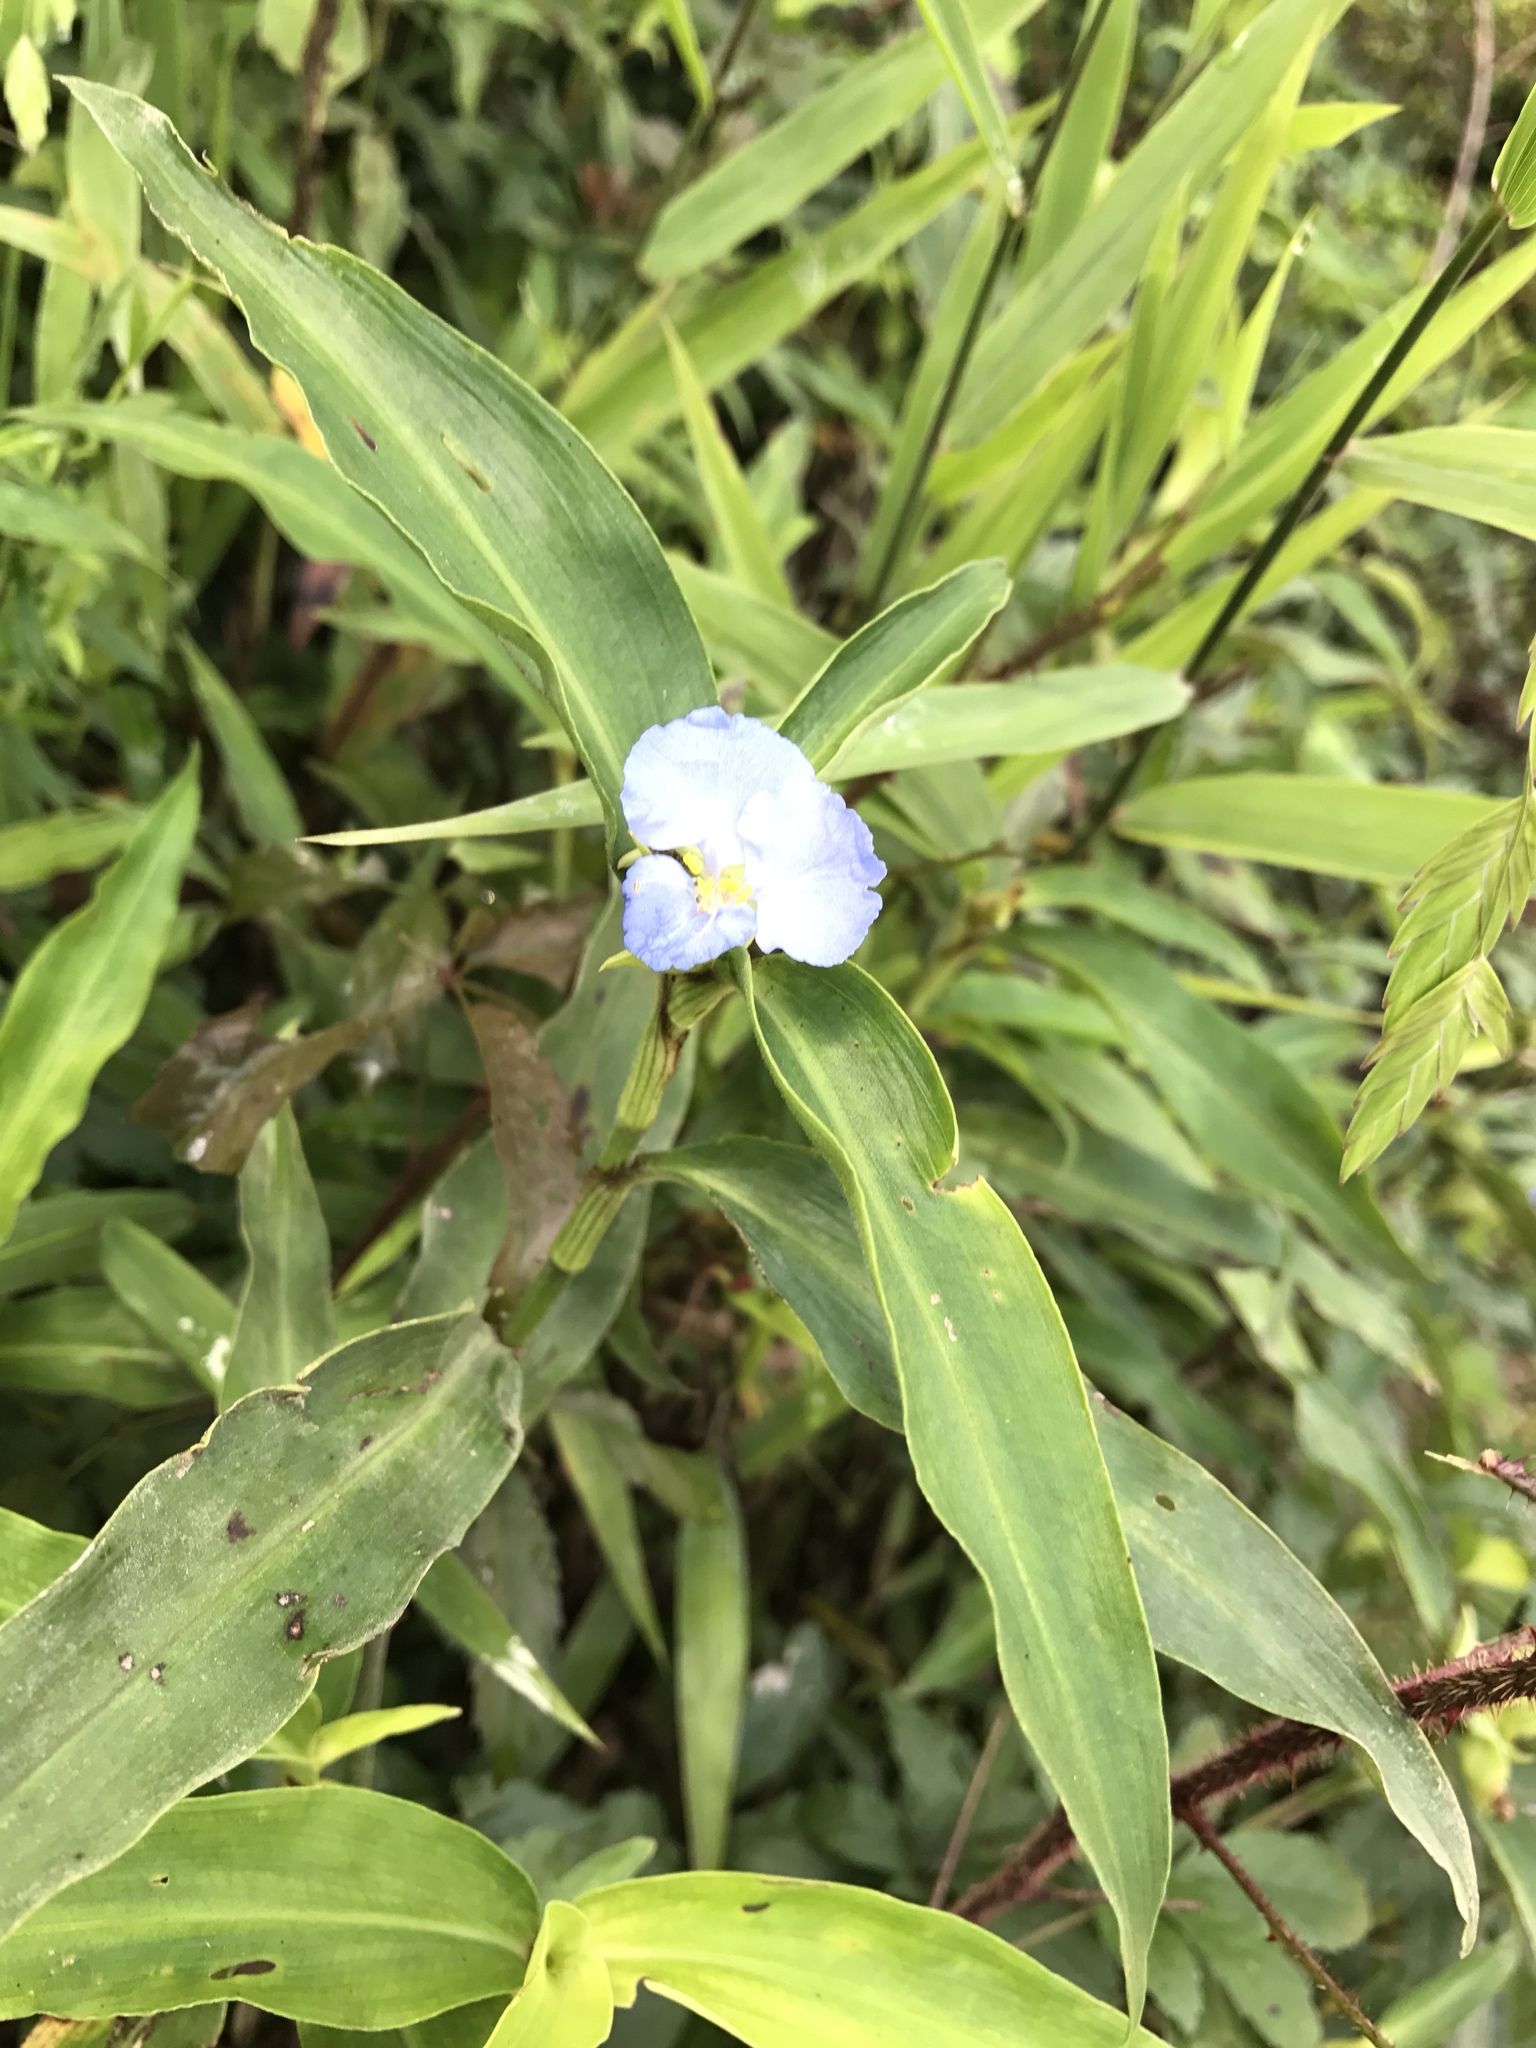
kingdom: Plantae
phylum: Tracheophyta
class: Liliopsida
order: Commelinales
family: Commelinaceae
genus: Commelina
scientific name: Commelina virginica
